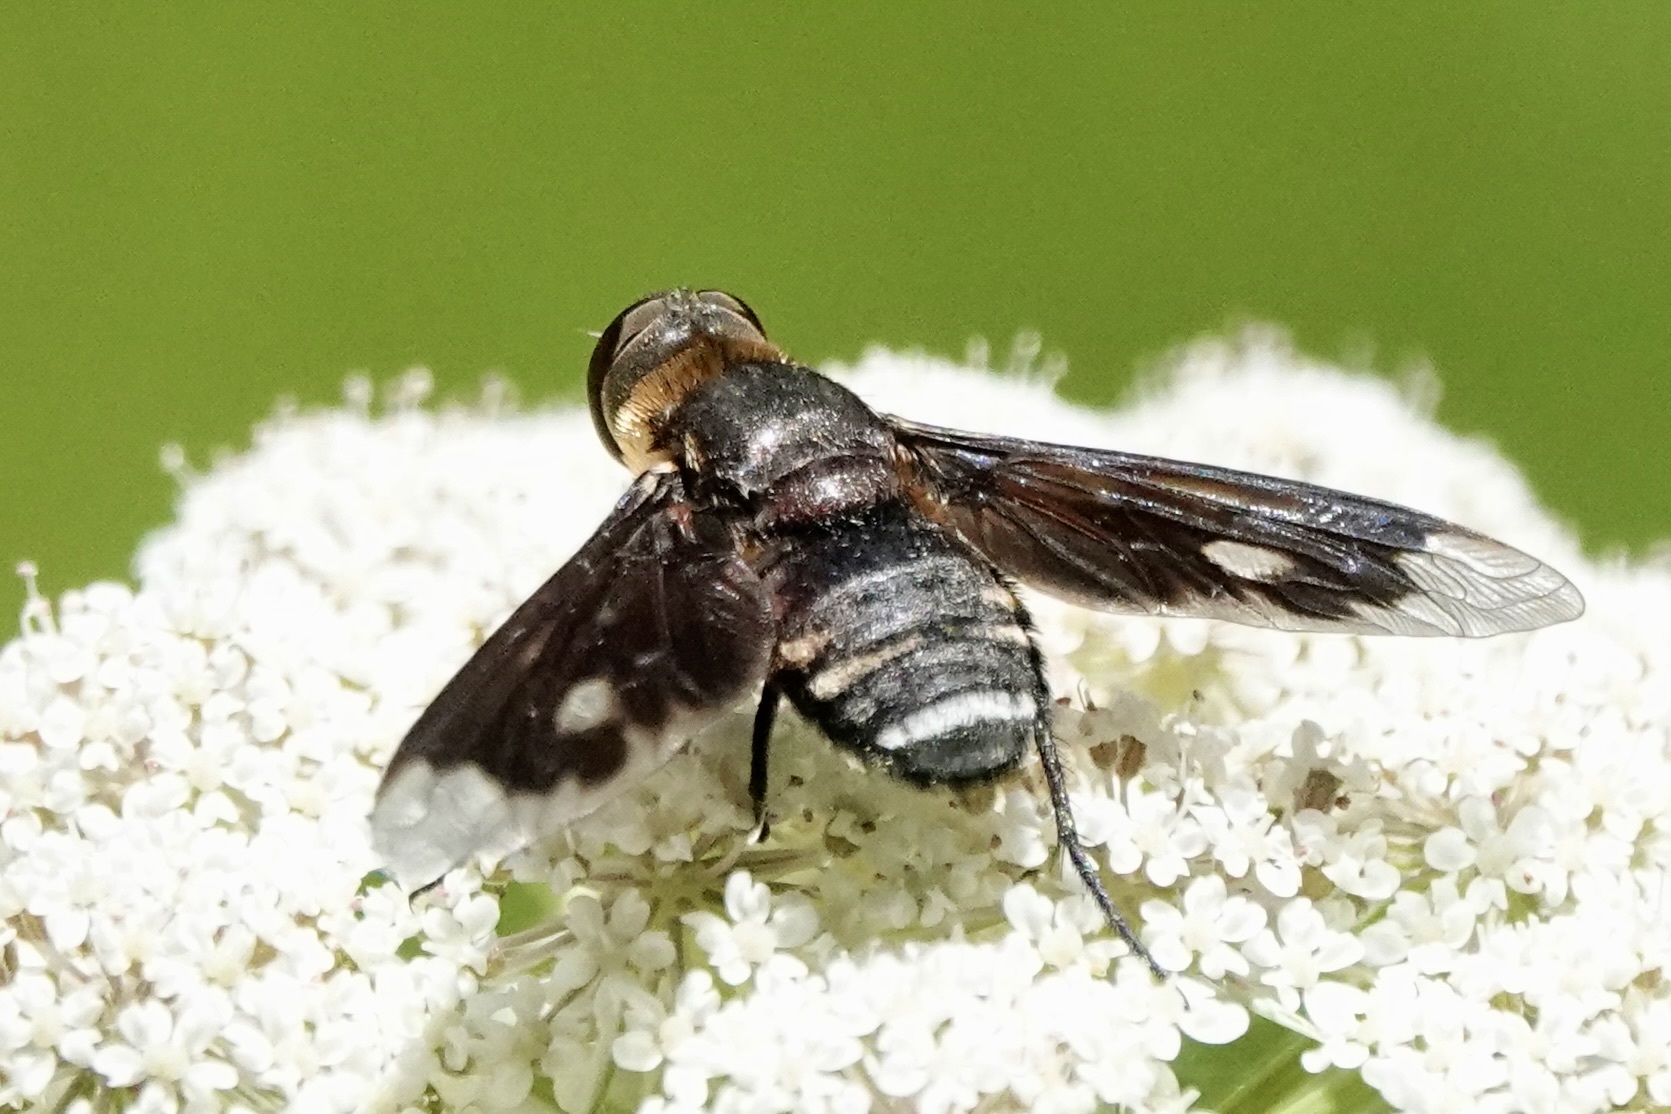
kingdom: Animalia
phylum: Arthropoda
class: Insecta
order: Diptera
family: Bombyliidae
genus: Exoprosopa
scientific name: Exoprosopa meigenii
